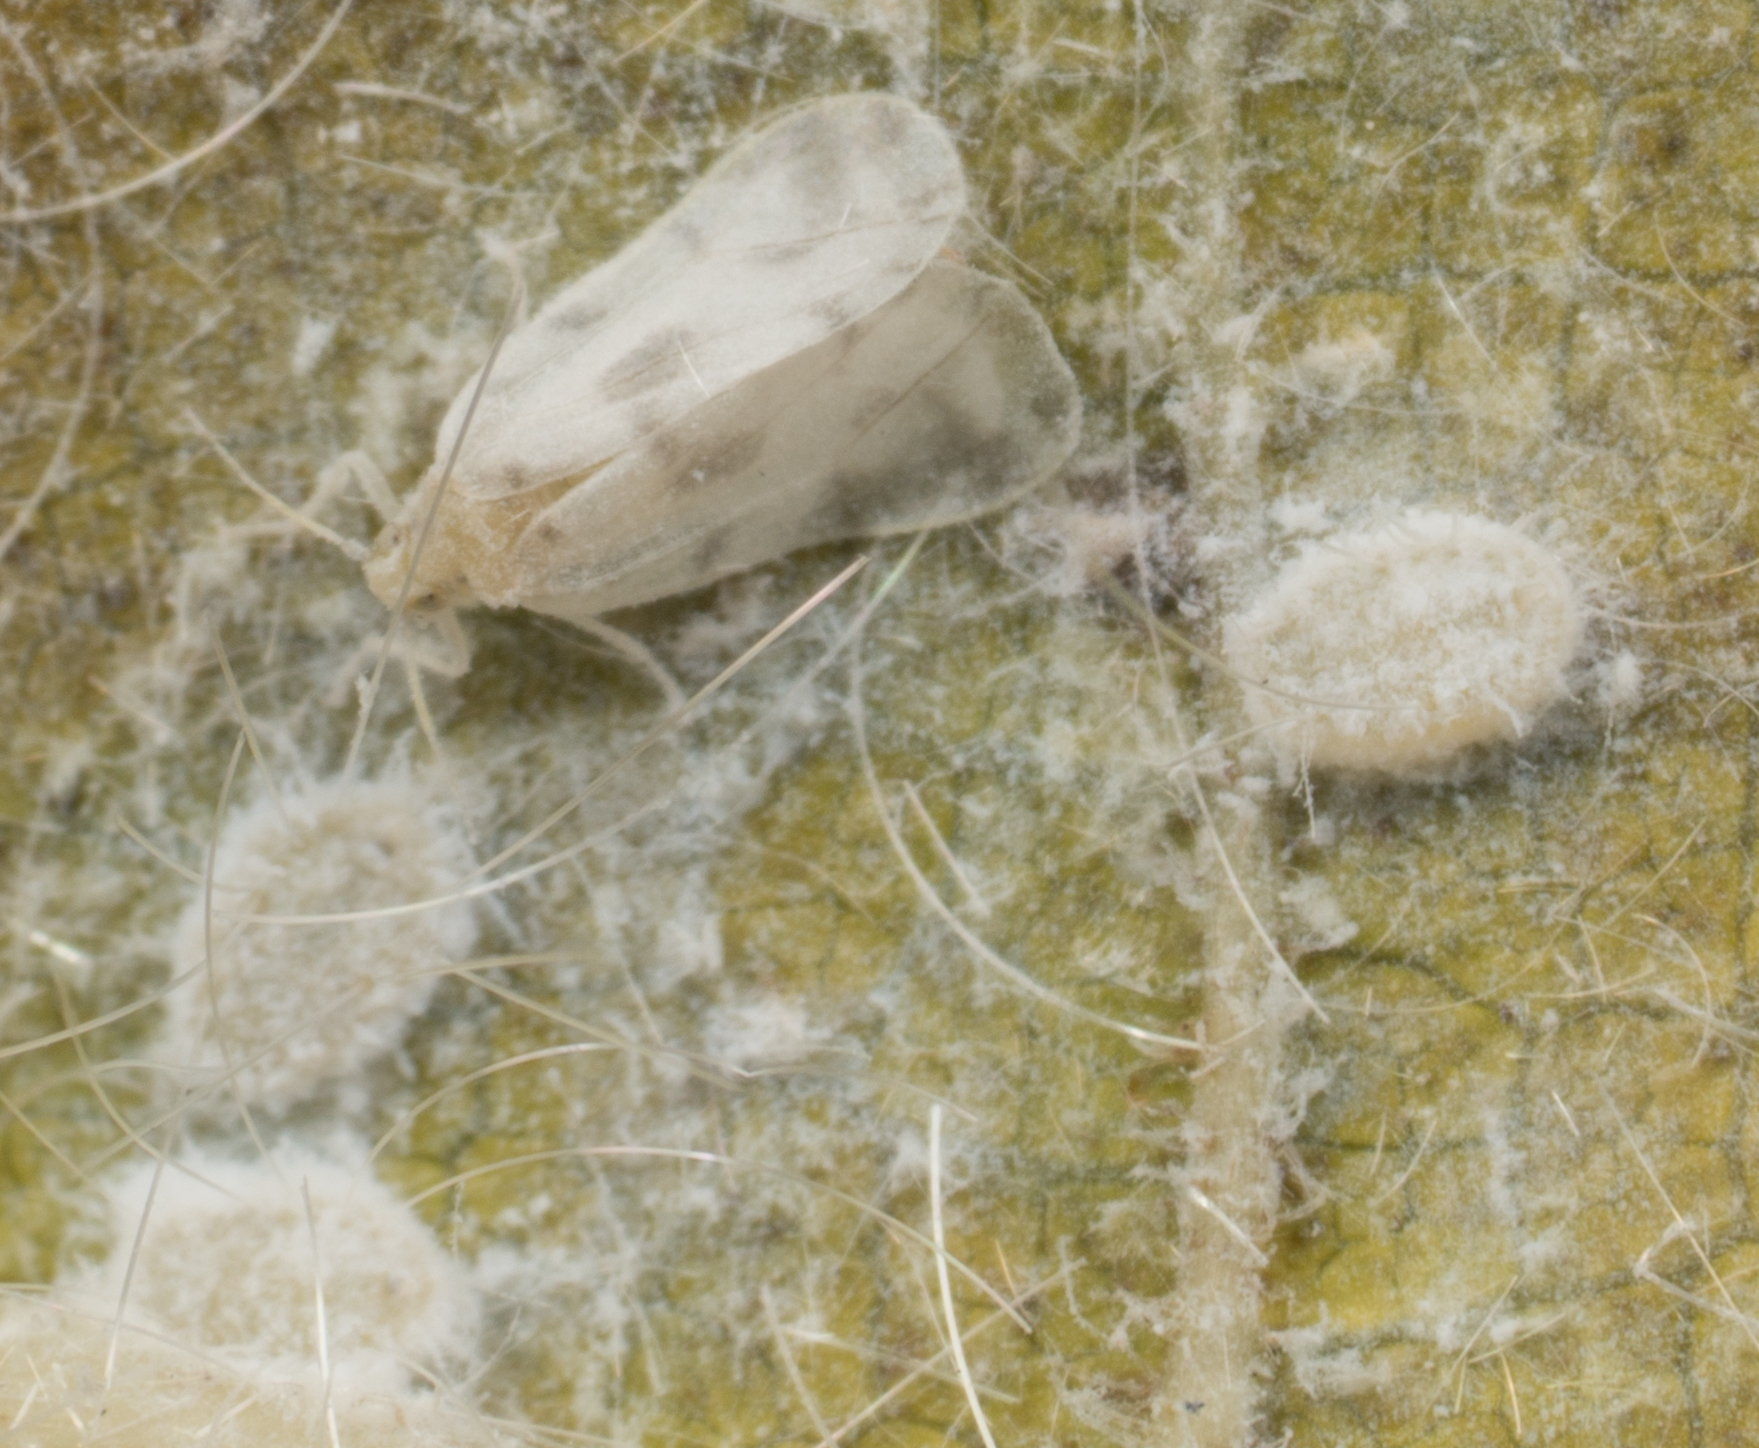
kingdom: Animalia
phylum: Arthropoda
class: Insecta
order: Hemiptera
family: Aleyrodidae
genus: Aleurodicus
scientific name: Aleurodicus dugesii
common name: Giant whitefly
